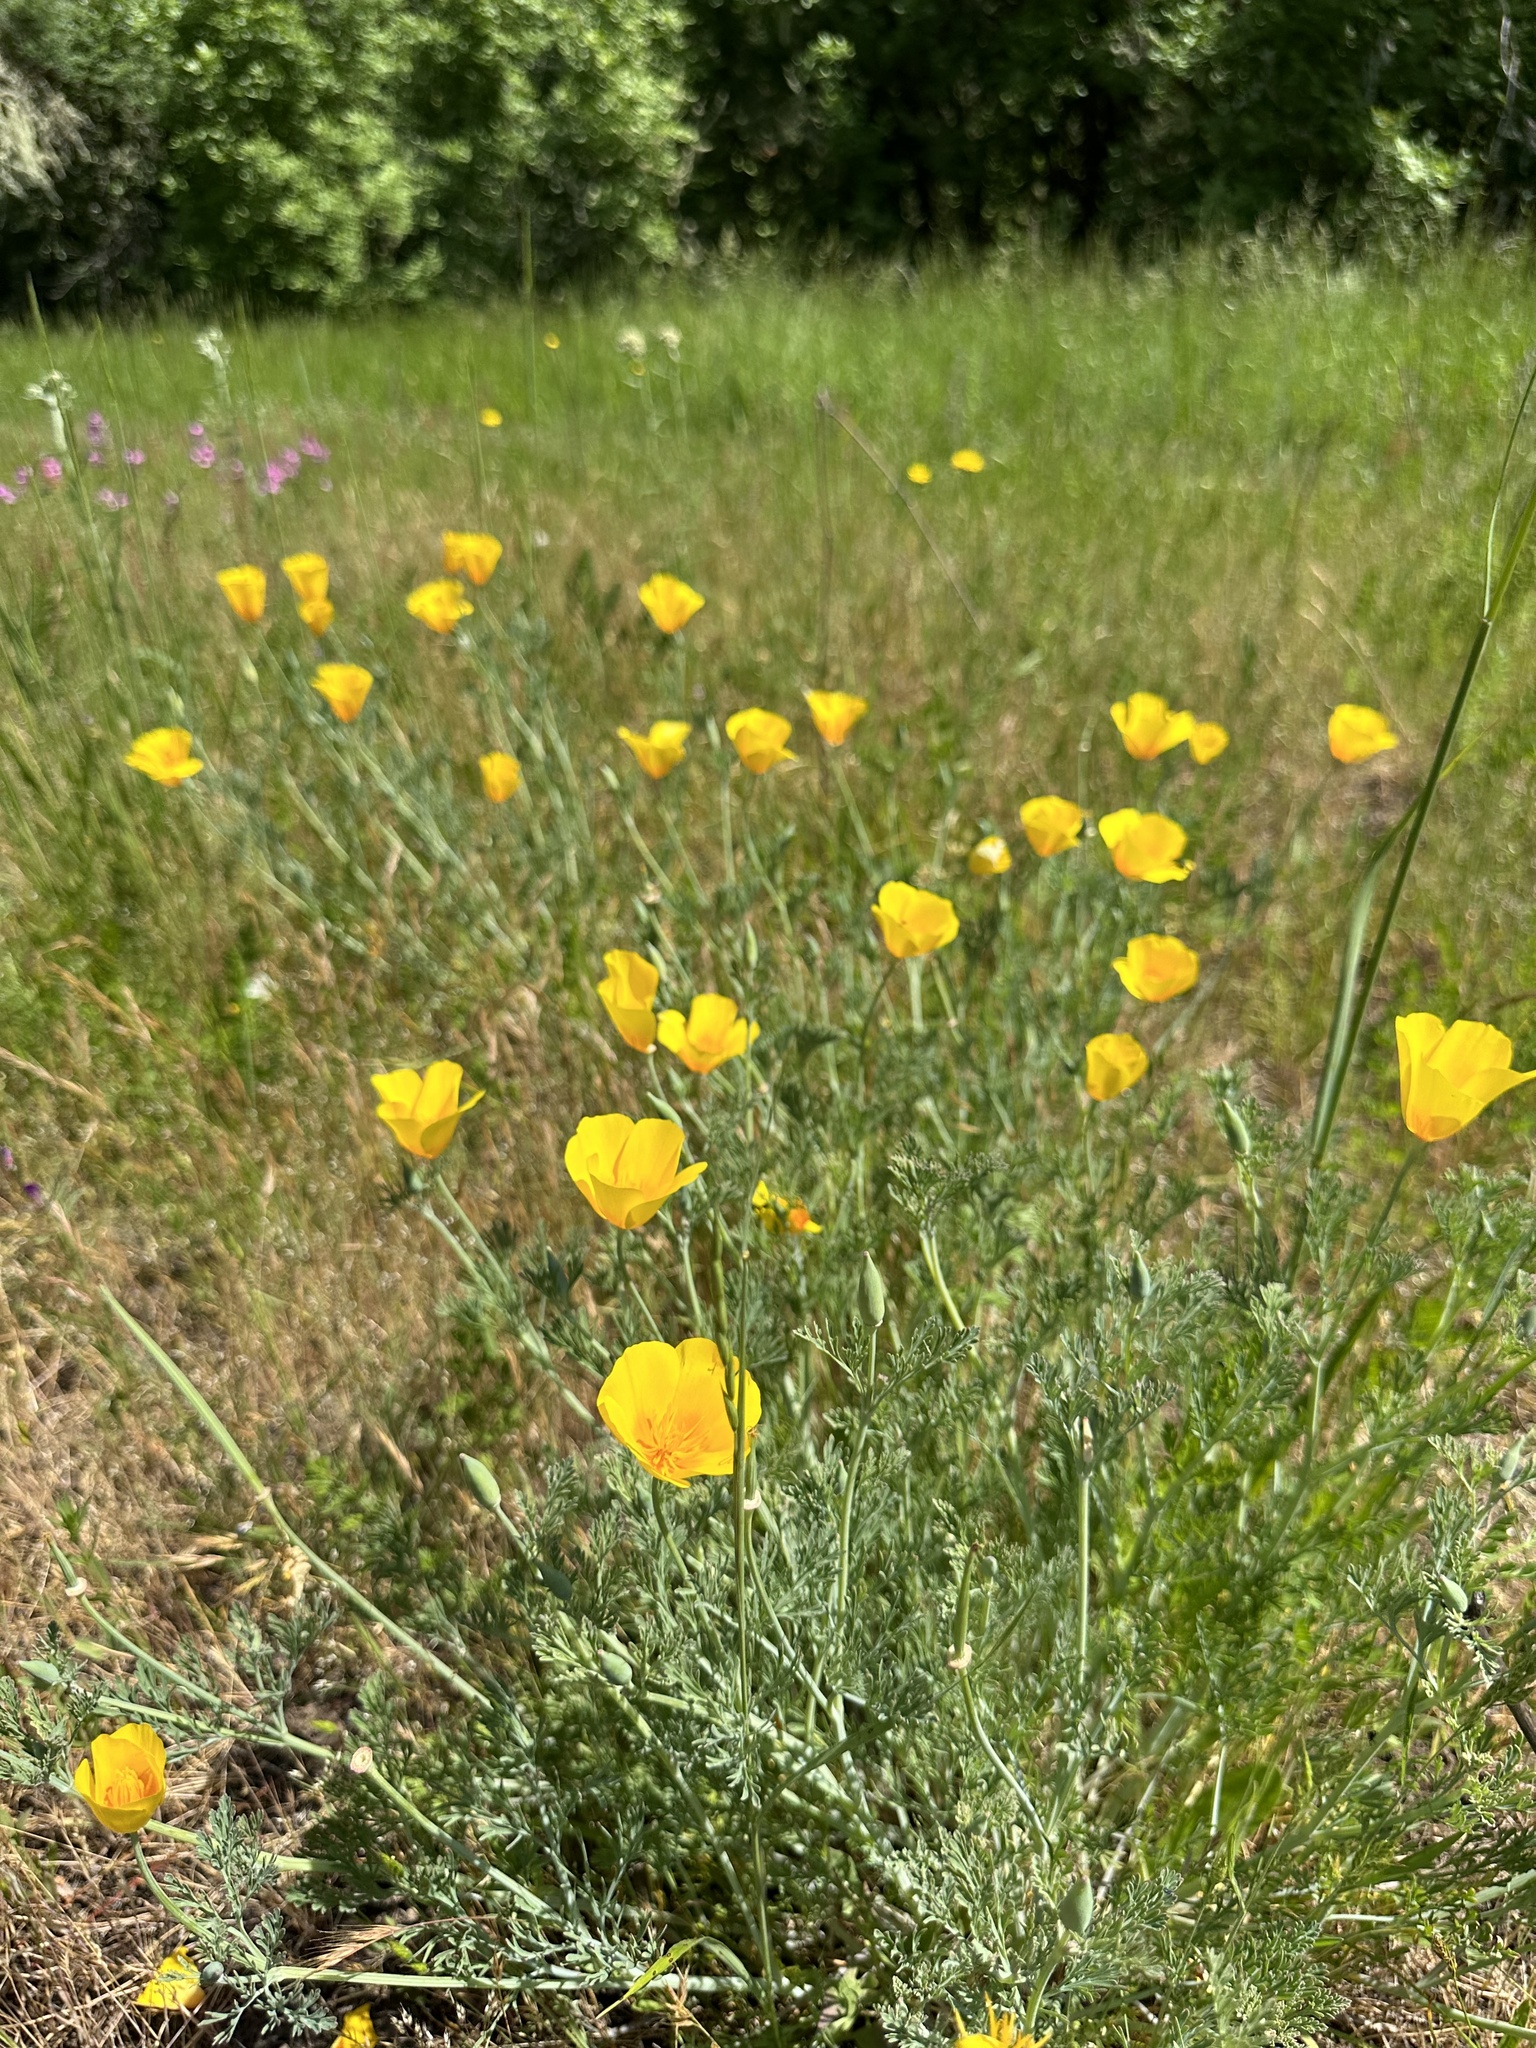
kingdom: Plantae
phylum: Tracheophyta
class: Magnoliopsida
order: Ranunculales
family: Papaveraceae
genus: Eschscholzia
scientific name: Eschscholzia californica
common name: California poppy
